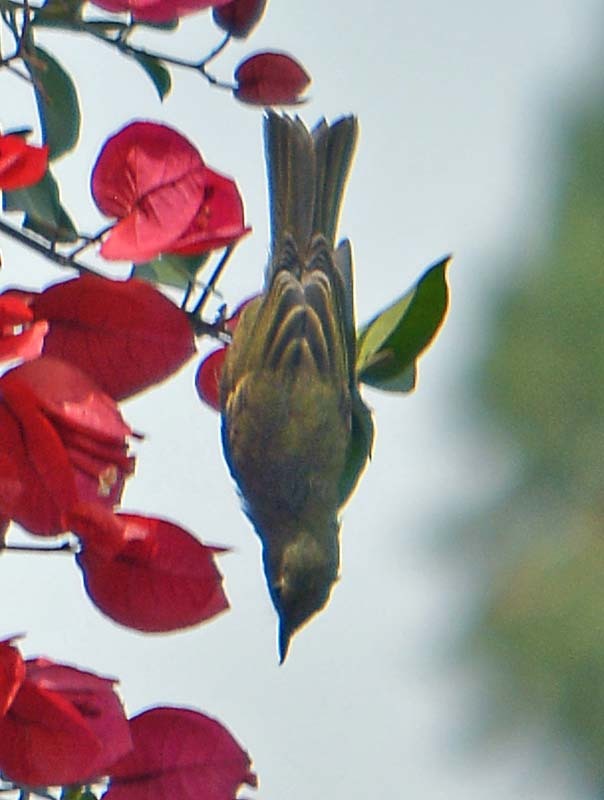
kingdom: Animalia
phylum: Chordata
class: Aves
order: Passeriformes
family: Thraupidae
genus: Diglossa
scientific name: Diglossa baritula
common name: Cinnamon-bellied flowerpiercer
